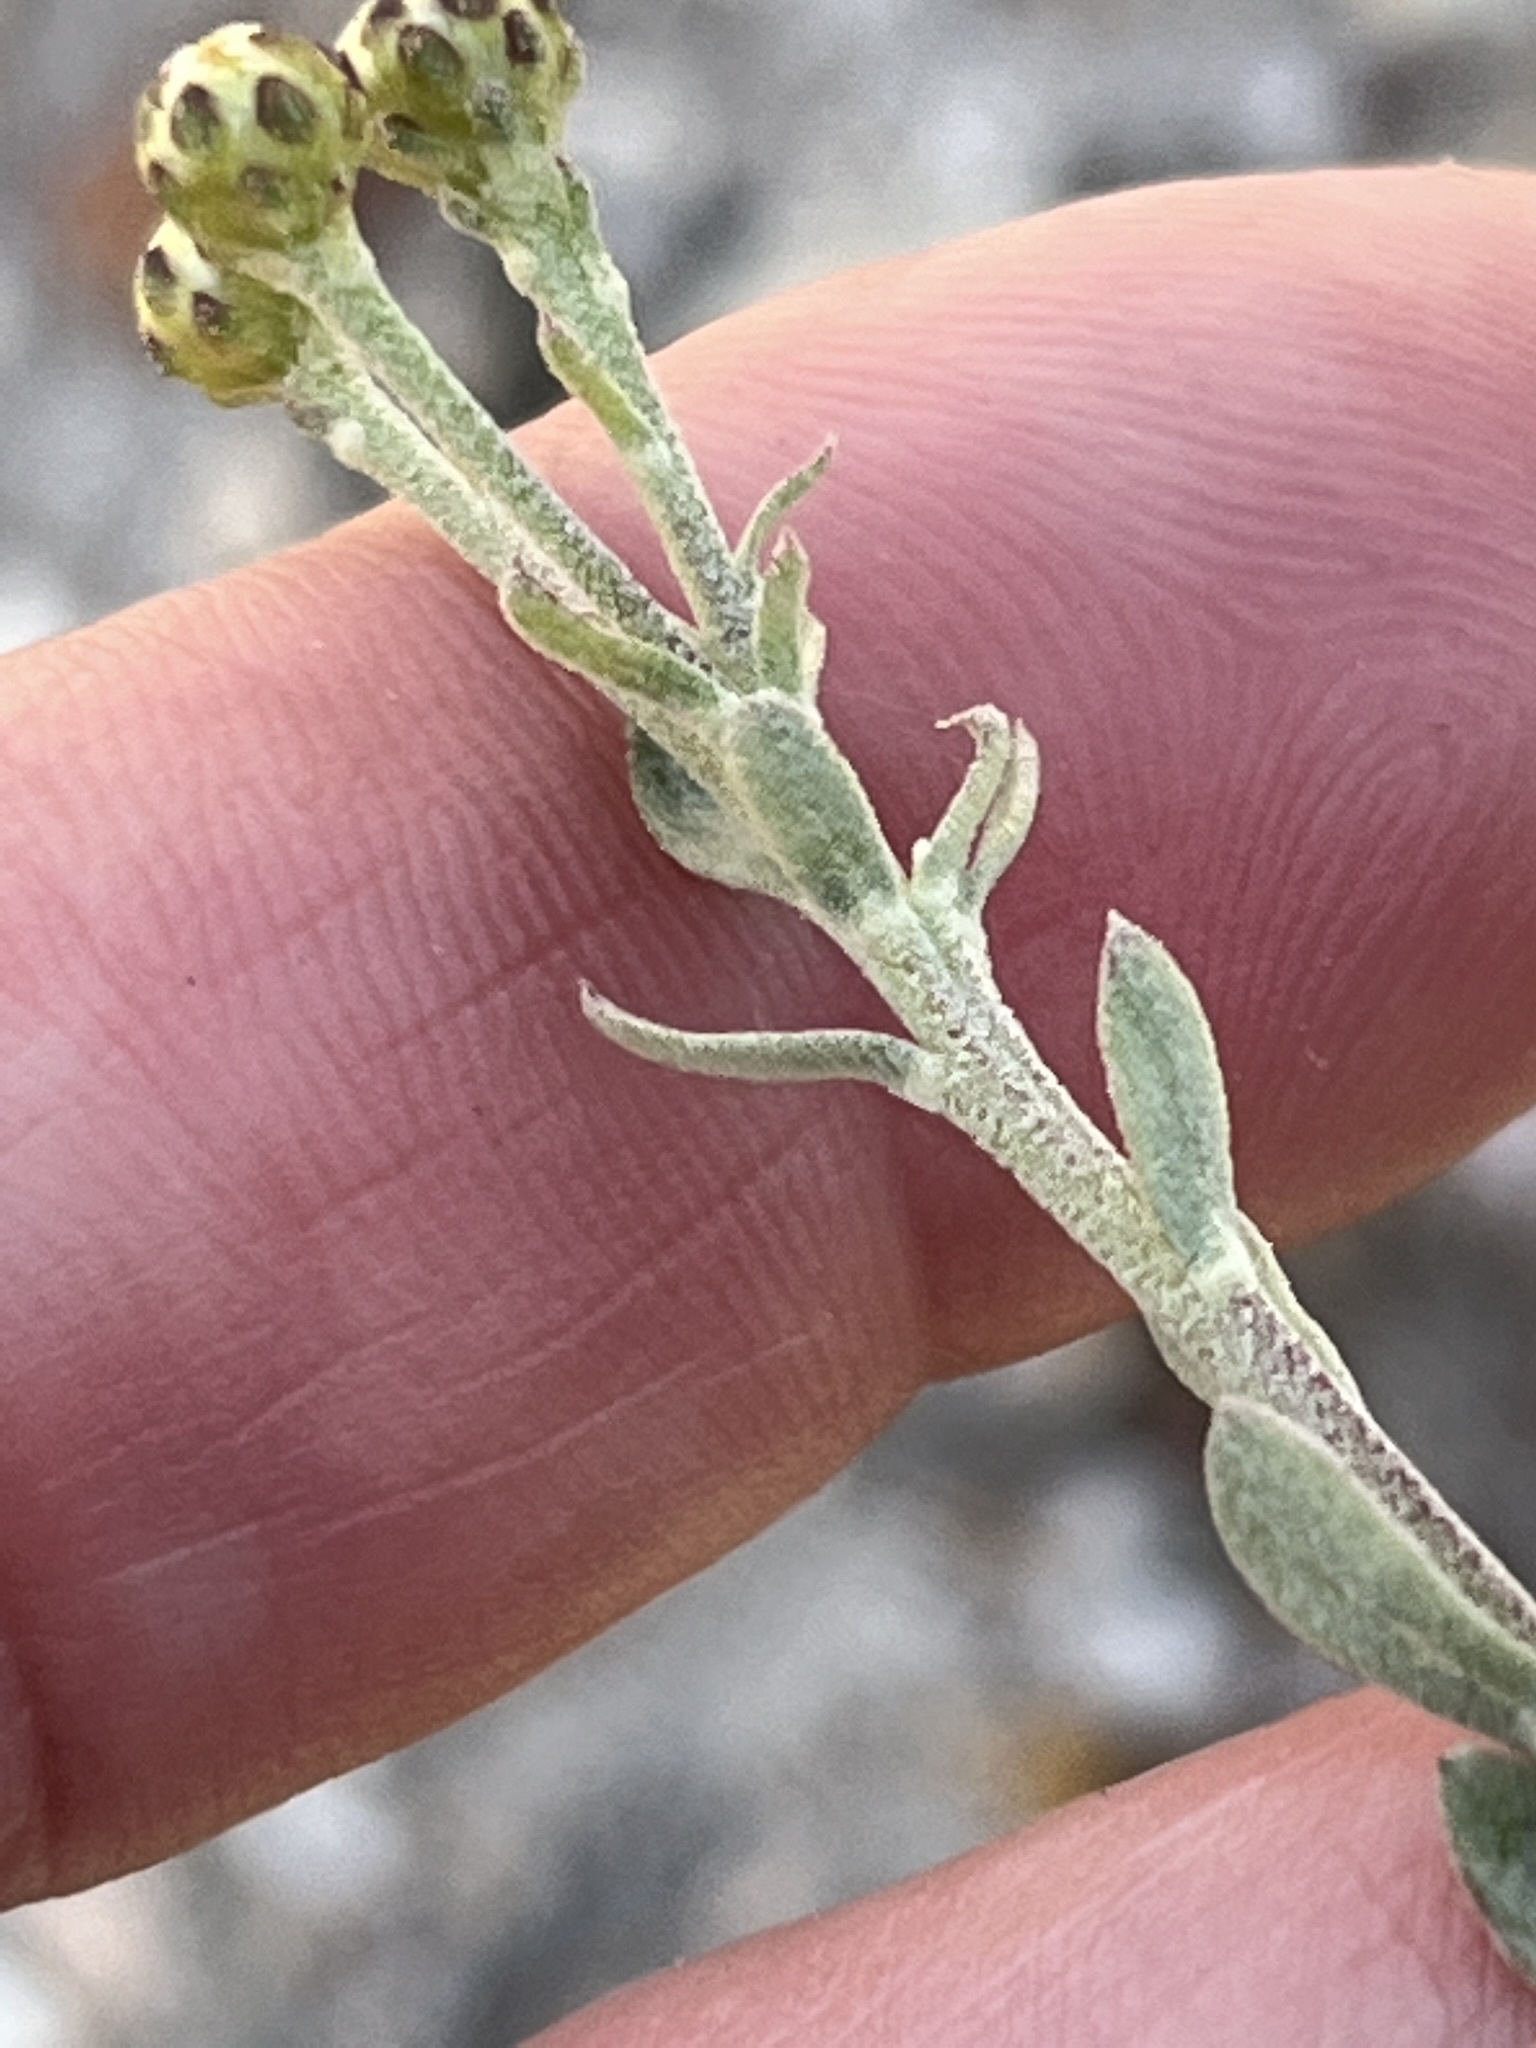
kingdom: Plantae
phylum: Tracheophyta
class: Magnoliopsida
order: Asterales
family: Asteraceae
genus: Athanasia
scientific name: Athanasia trifurcata
